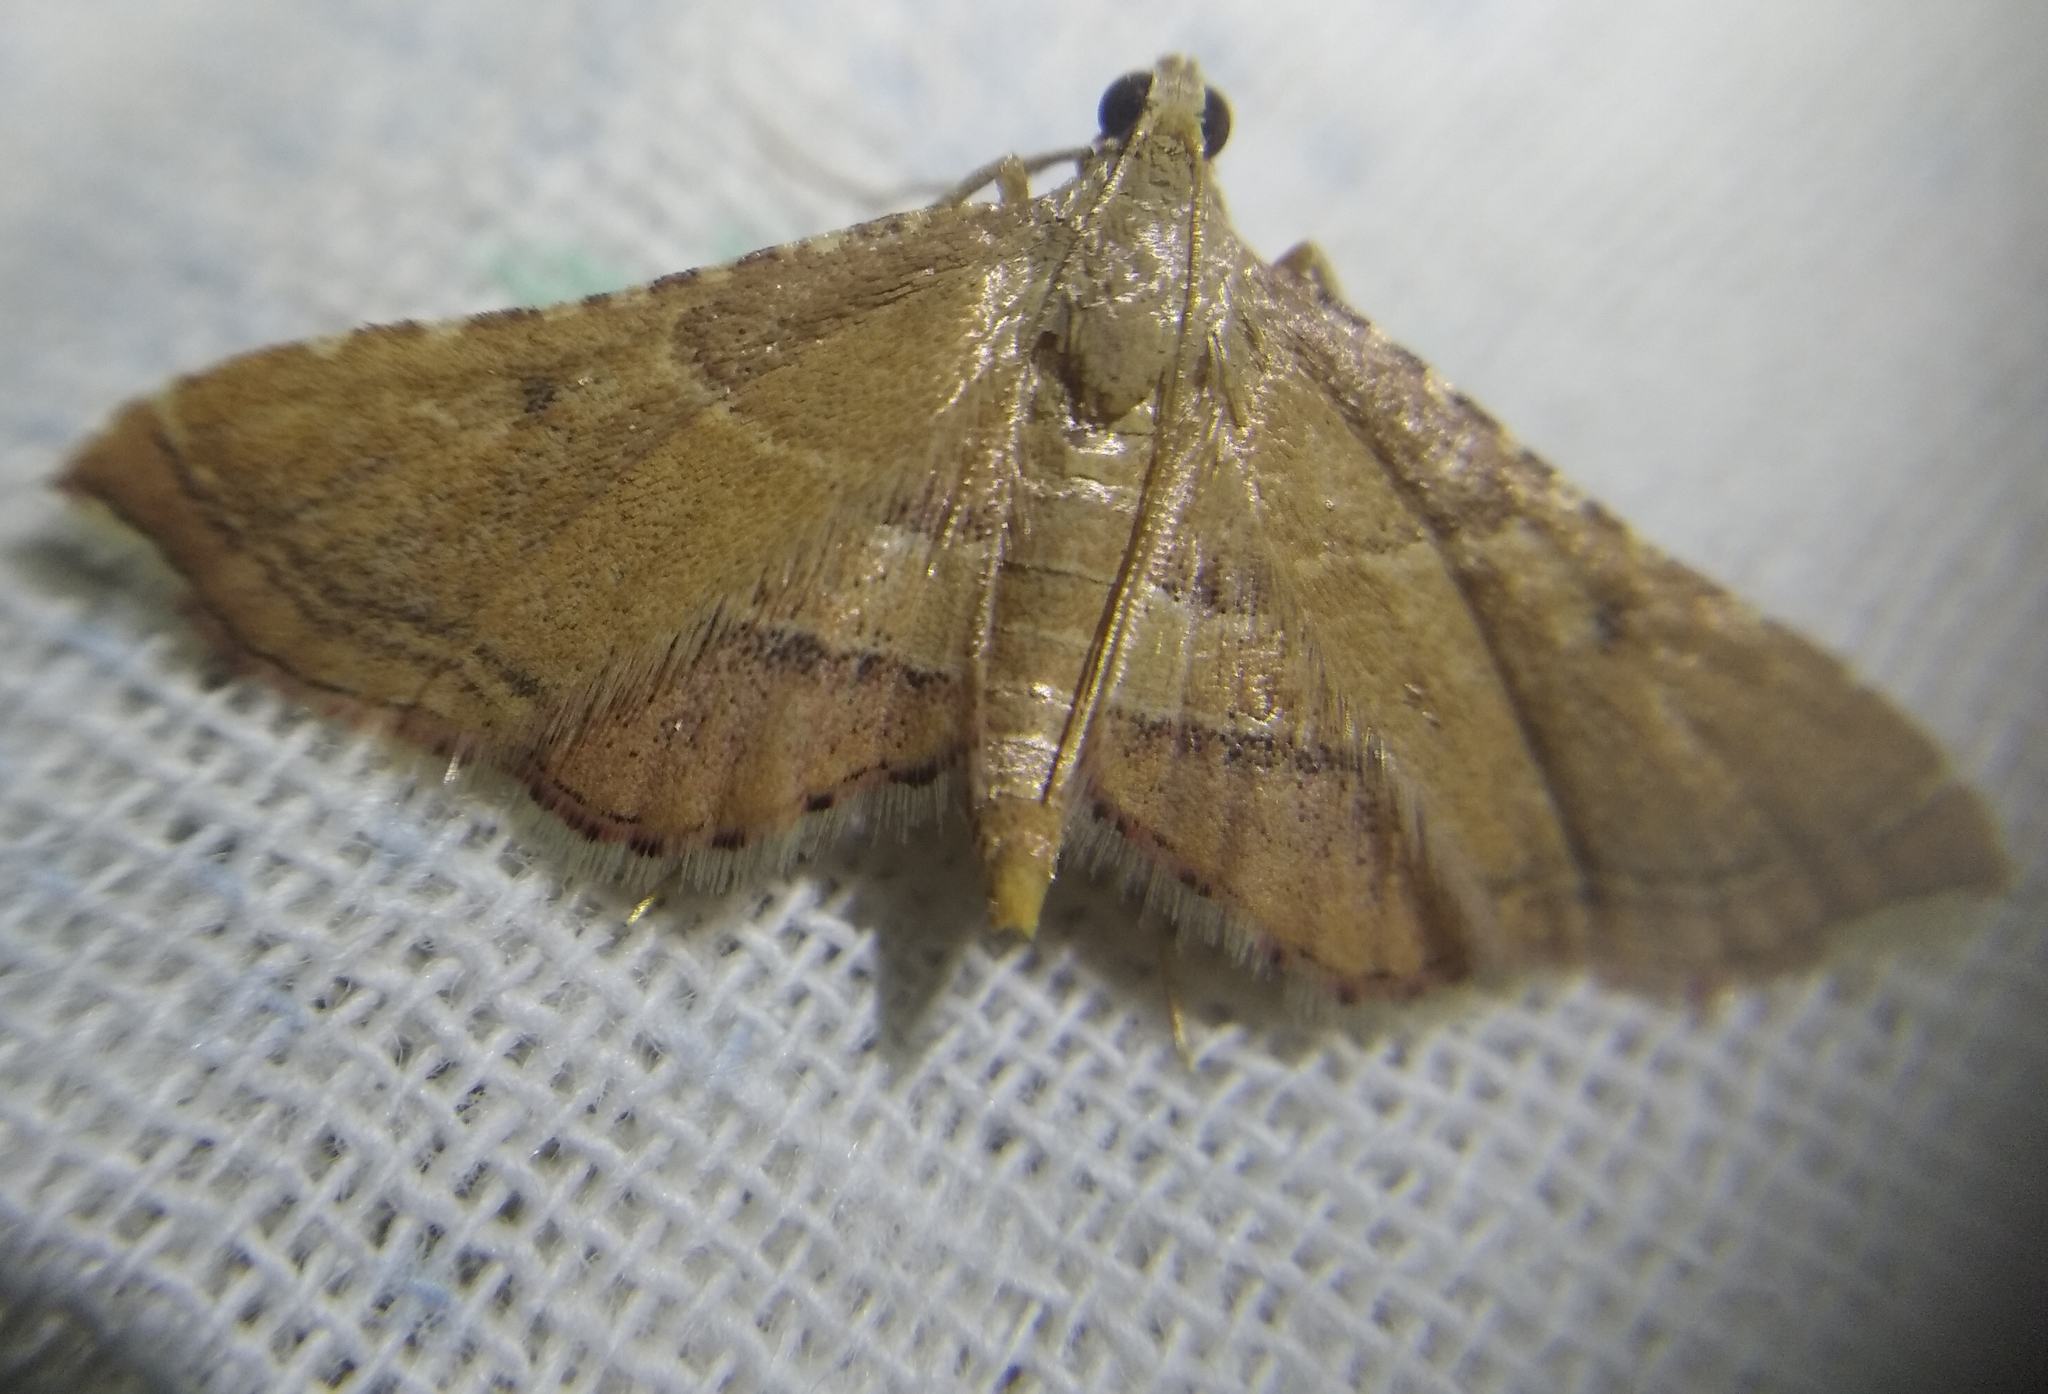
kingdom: Animalia
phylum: Arthropoda
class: Insecta
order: Lepidoptera
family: Pyralidae
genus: Endotricha
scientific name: Endotricha flammealis
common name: Rosy tabby
